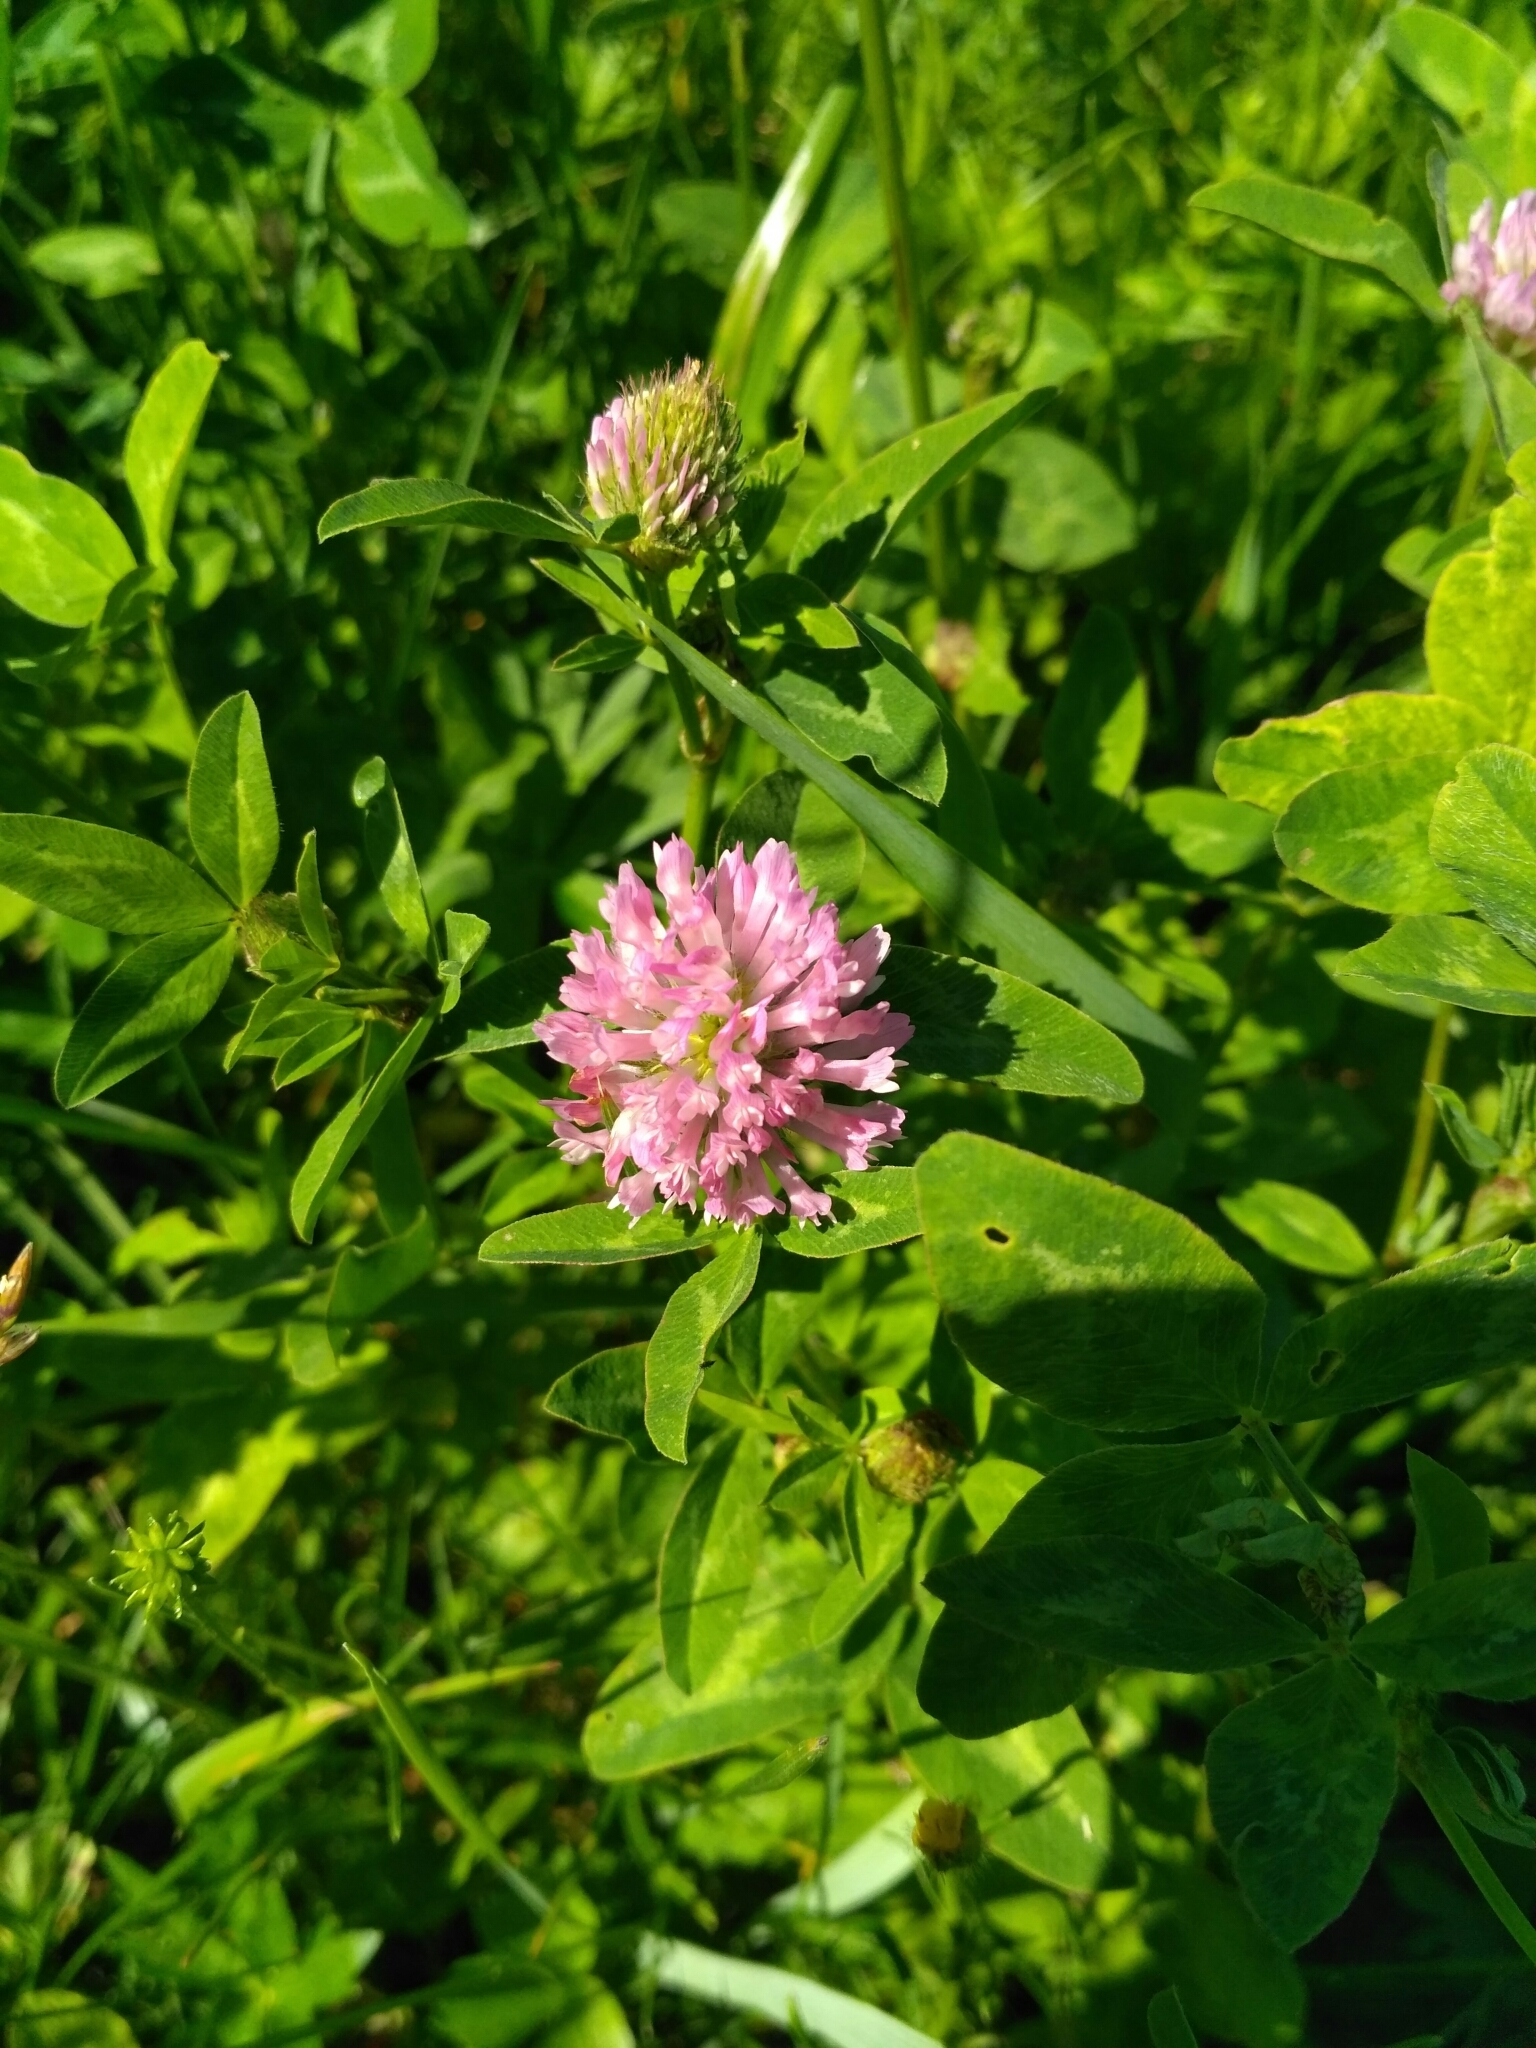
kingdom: Plantae
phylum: Tracheophyta
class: Magnoliopsida
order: Fabales
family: Fabaceae
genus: Trifolium
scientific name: Trifolium pratense
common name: Red clover
